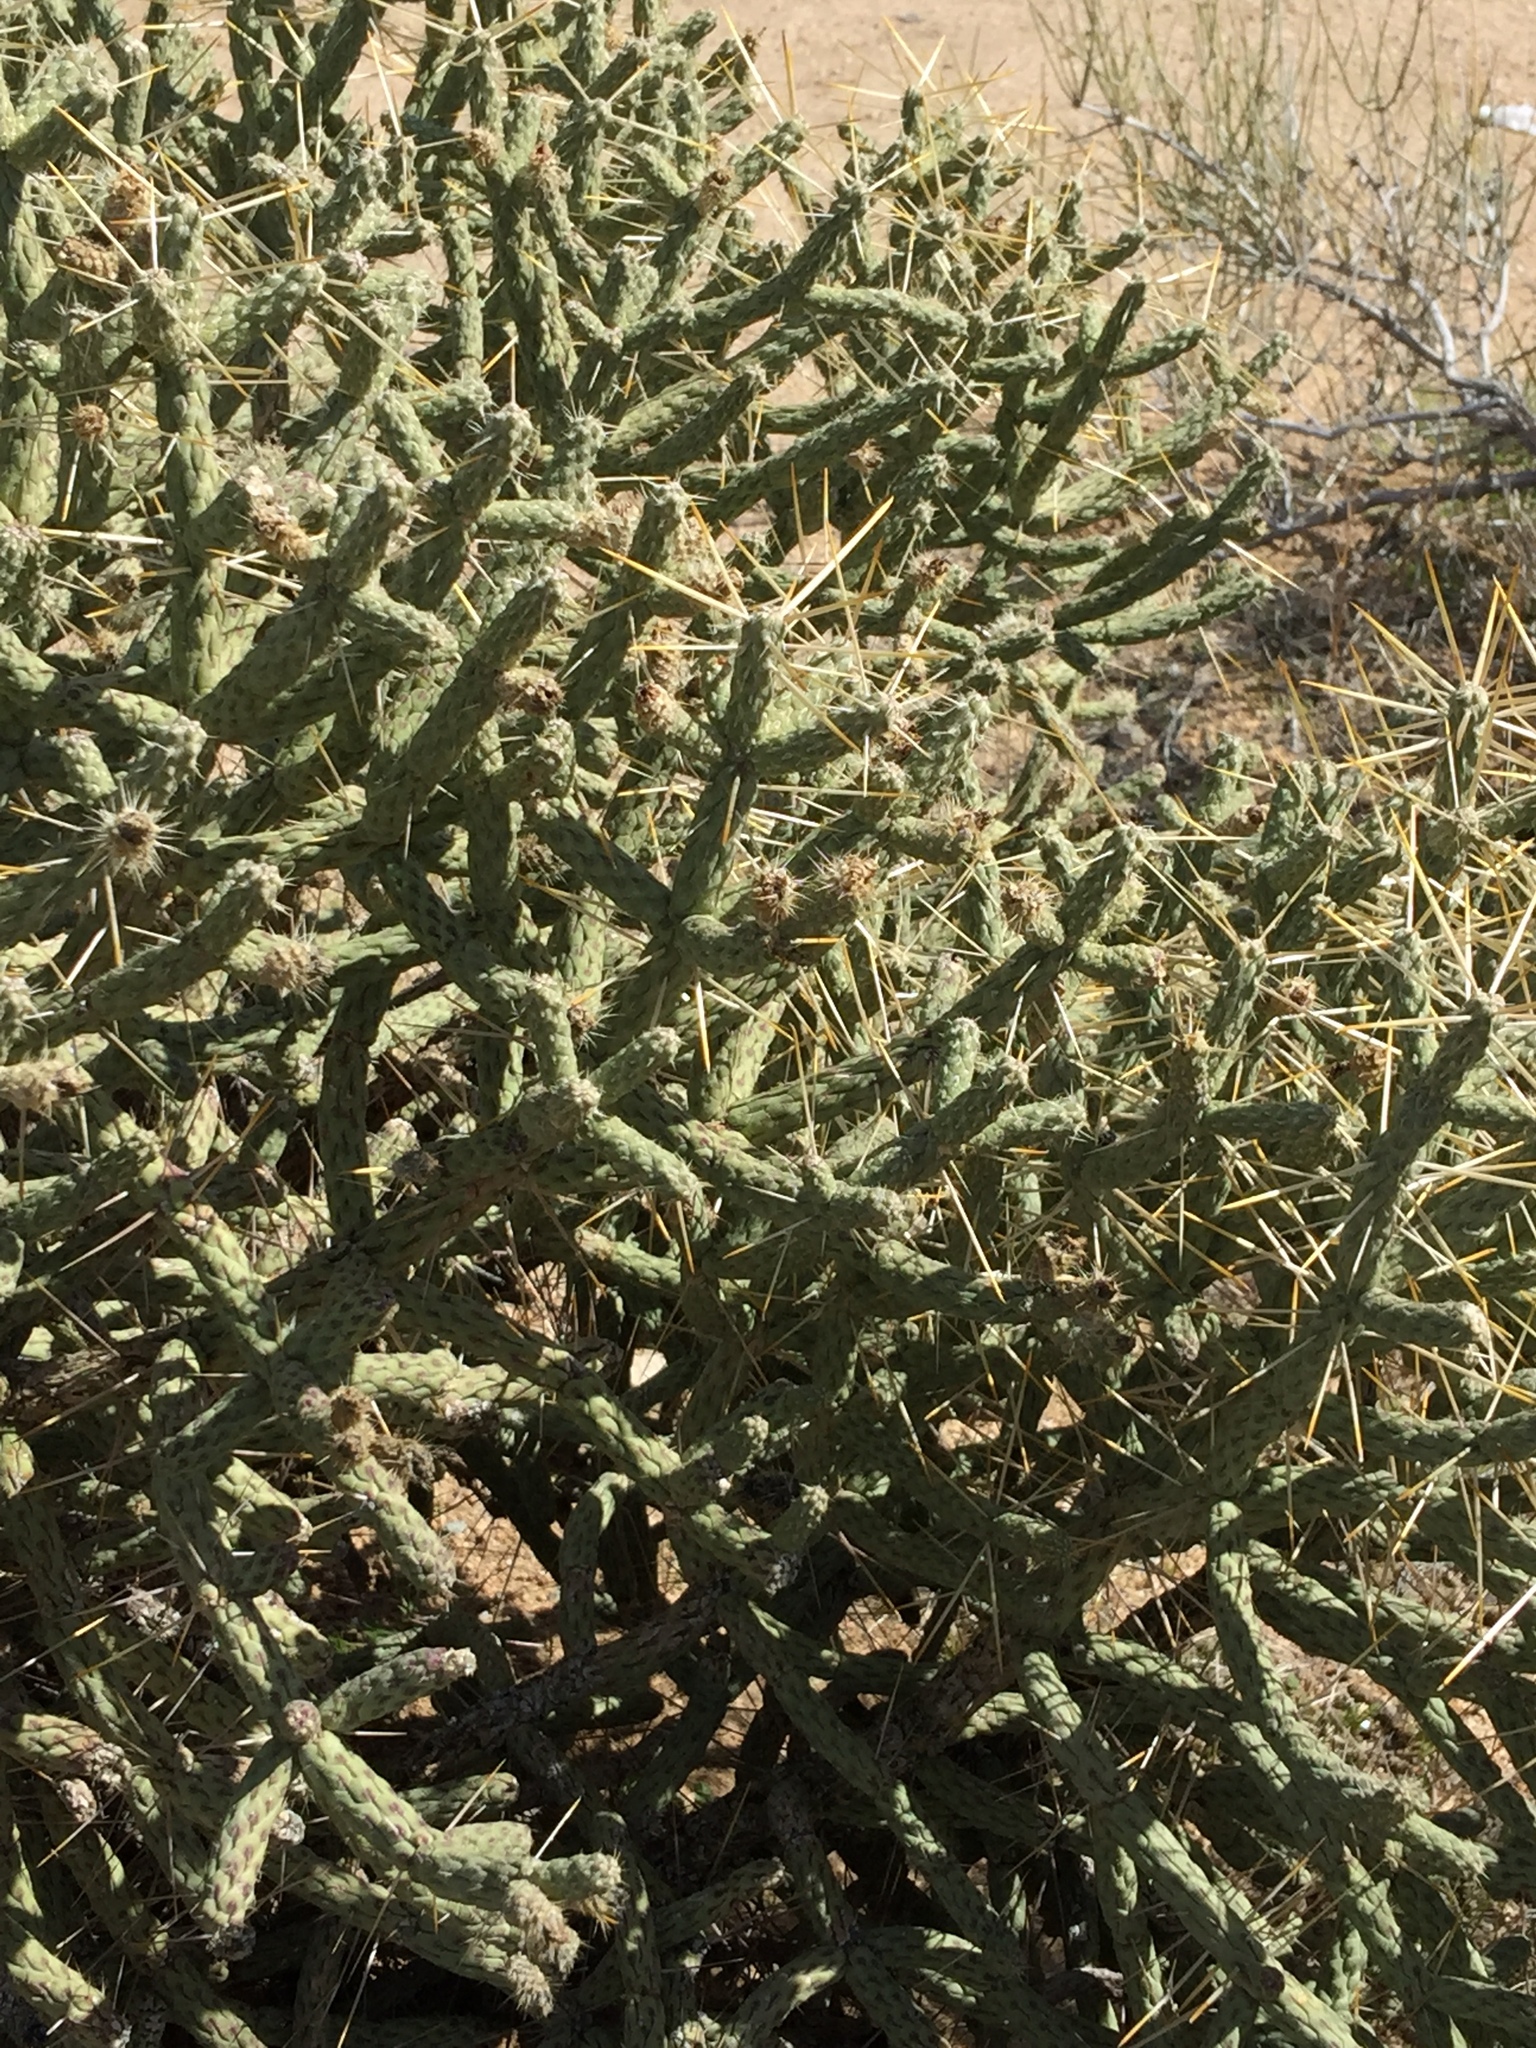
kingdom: Plantae
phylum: Tracheophyta
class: Magnoliopsida
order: Caryophyllales
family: Cactaceae
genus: Cylindropuntia
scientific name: Cylindropuntia ramosissima
